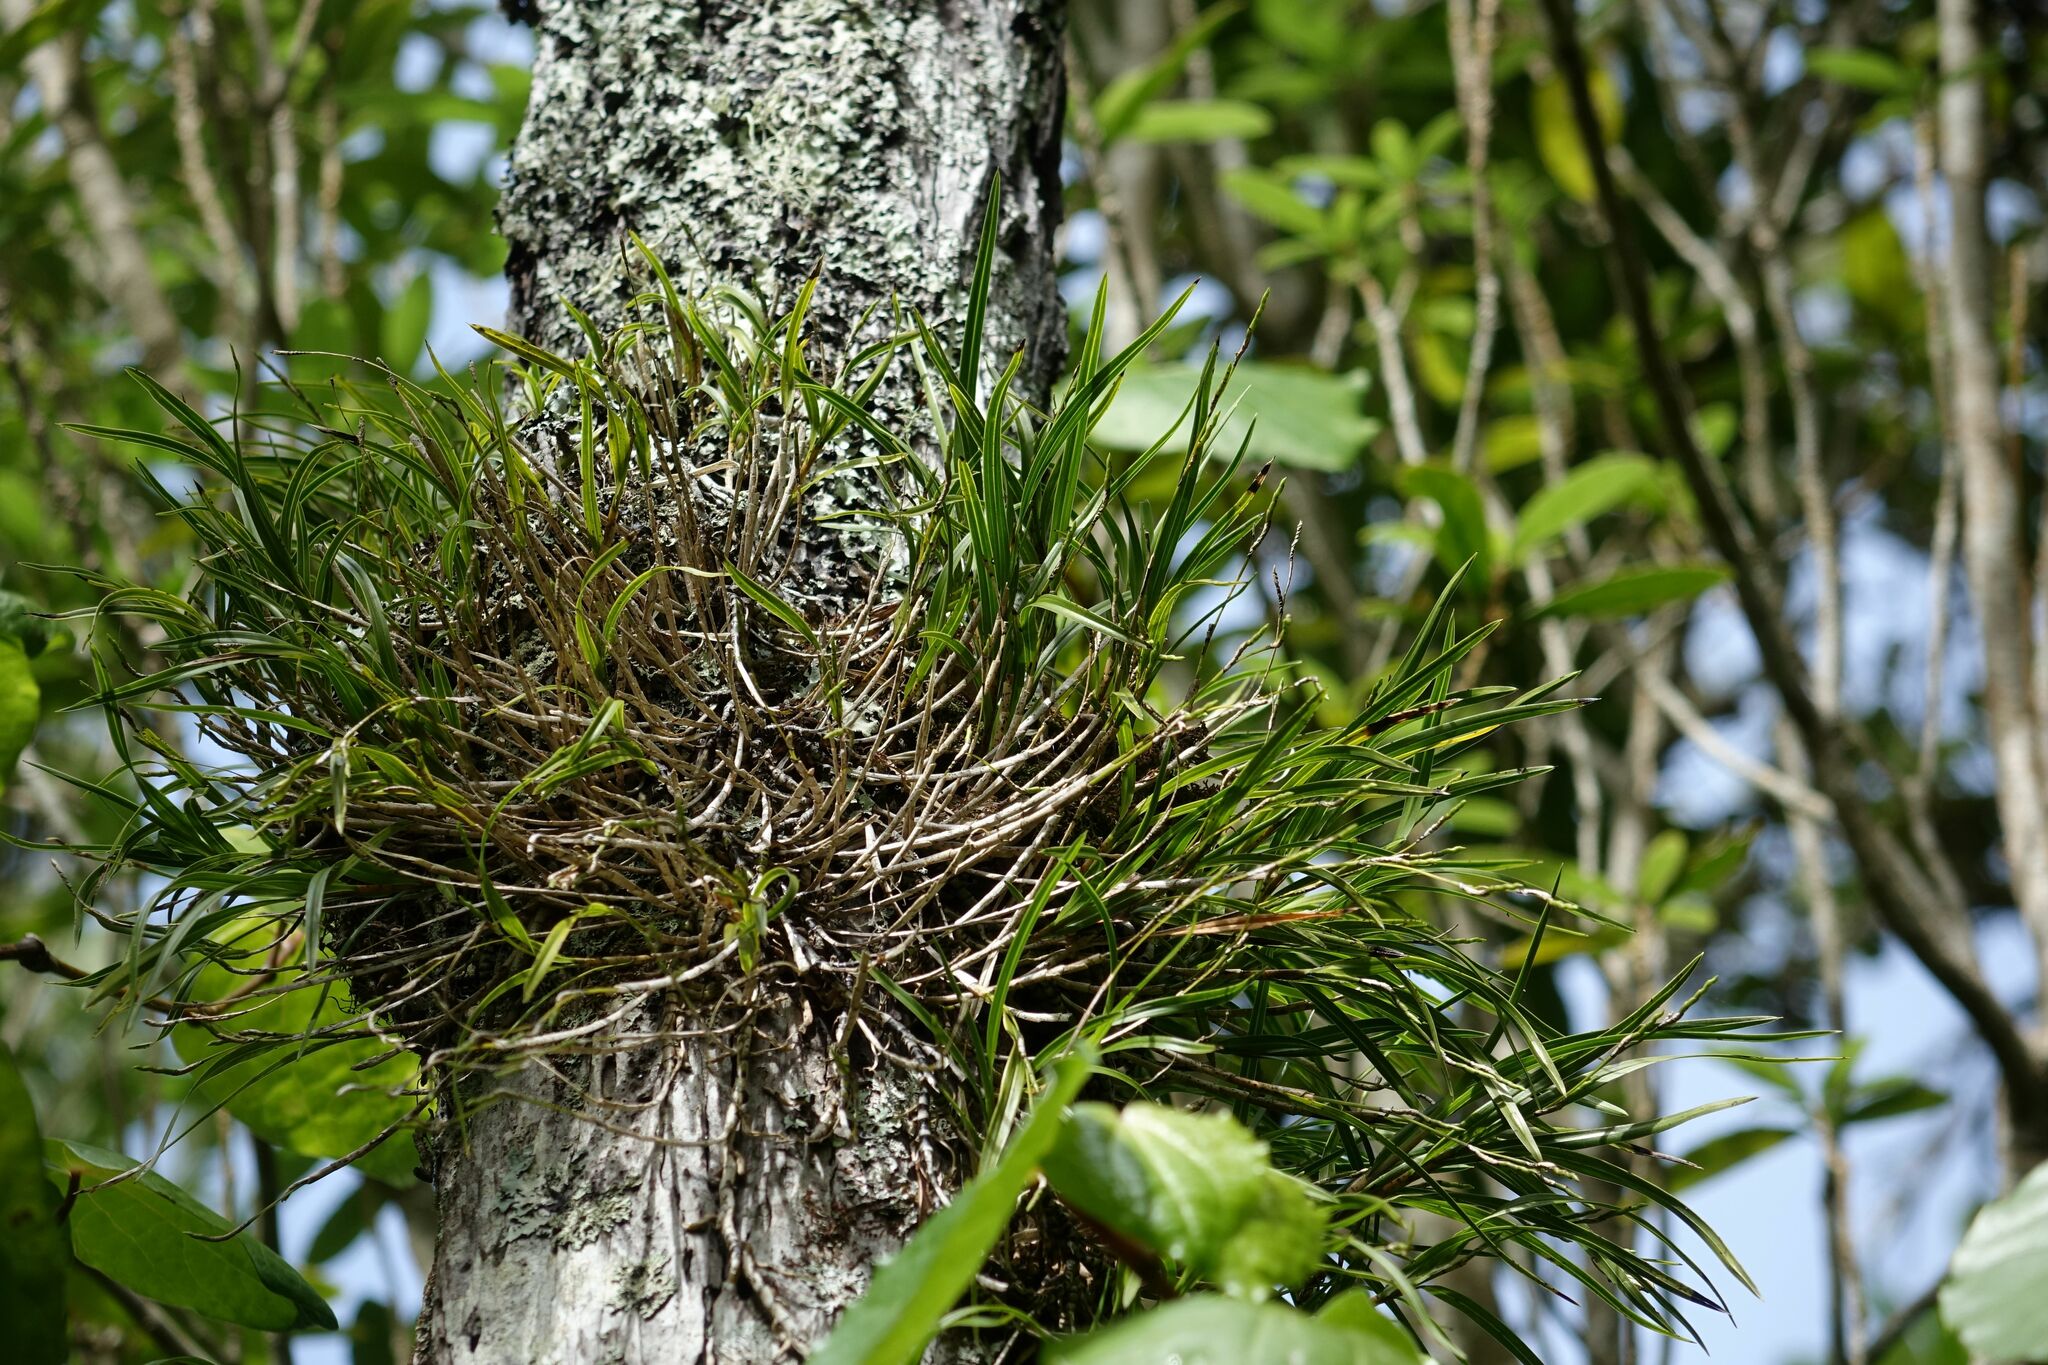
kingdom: Plantae
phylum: Tracheophyta
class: Liliopsida
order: Asparagales
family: Orchidaceae
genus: Earina
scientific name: Earina mucronata
